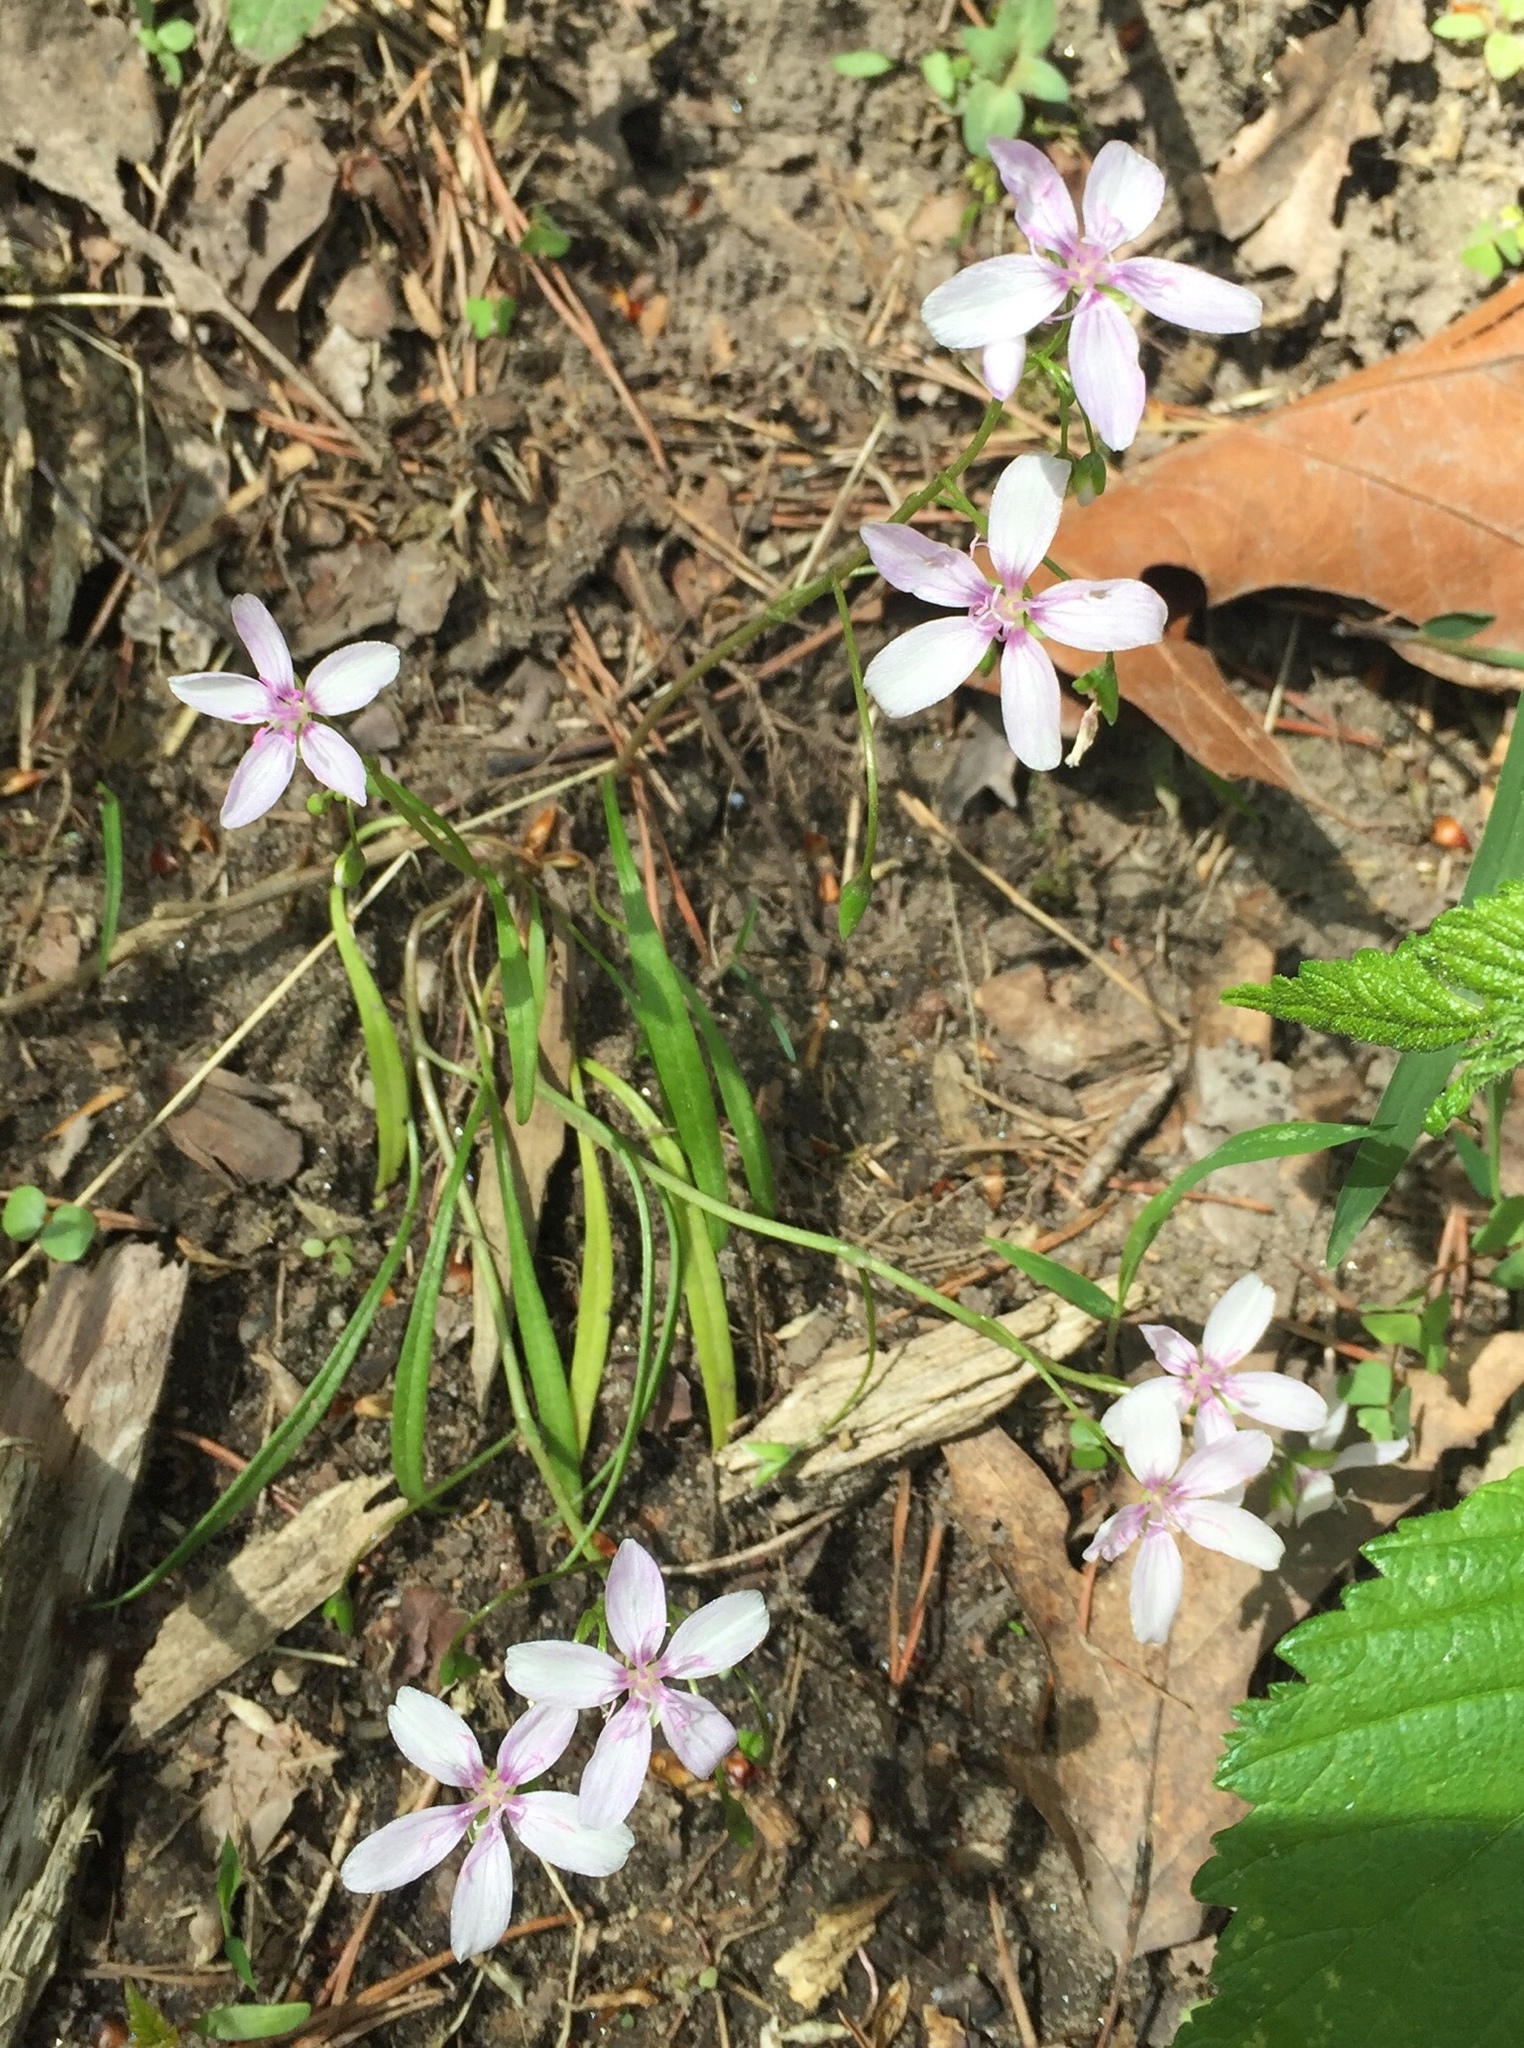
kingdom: Plantae
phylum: Tracheophyta
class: Magnoliopsida
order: Caryophyllales
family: Montiaceae
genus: Claytonia
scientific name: Claytonia virginica
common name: Virginia springbeauty
